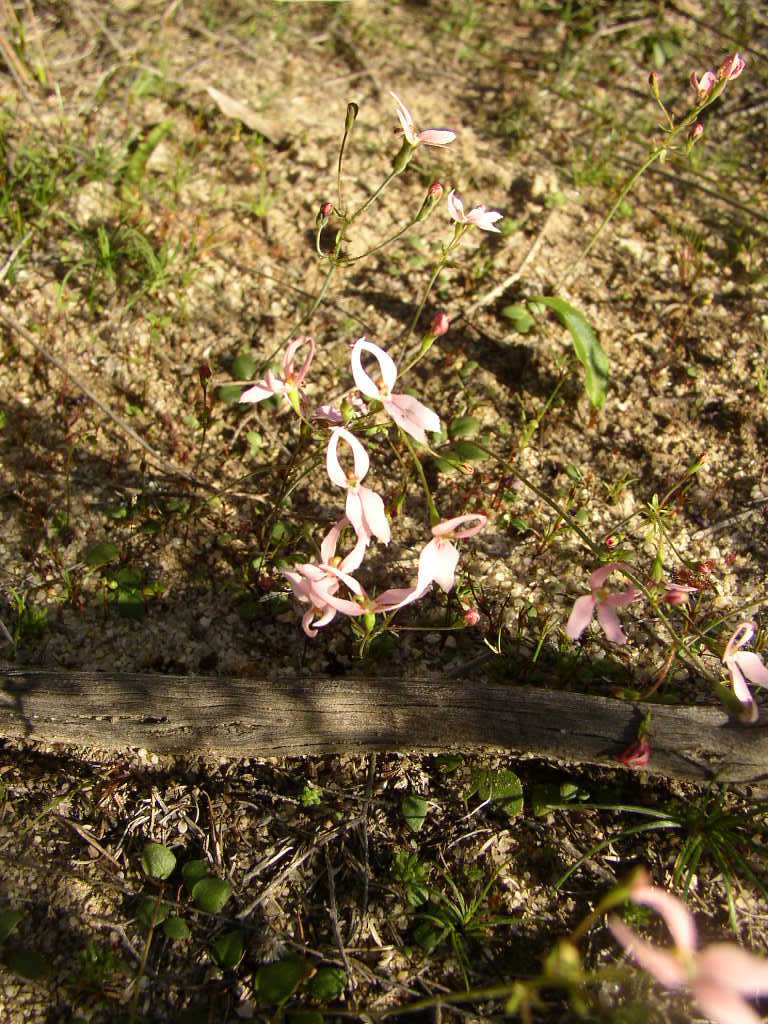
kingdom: Plantae
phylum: Tracheophyta
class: Magnoliopsida
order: Asterales
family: Stylidiaceae
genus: Stylidium
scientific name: Stylidium petiolare
